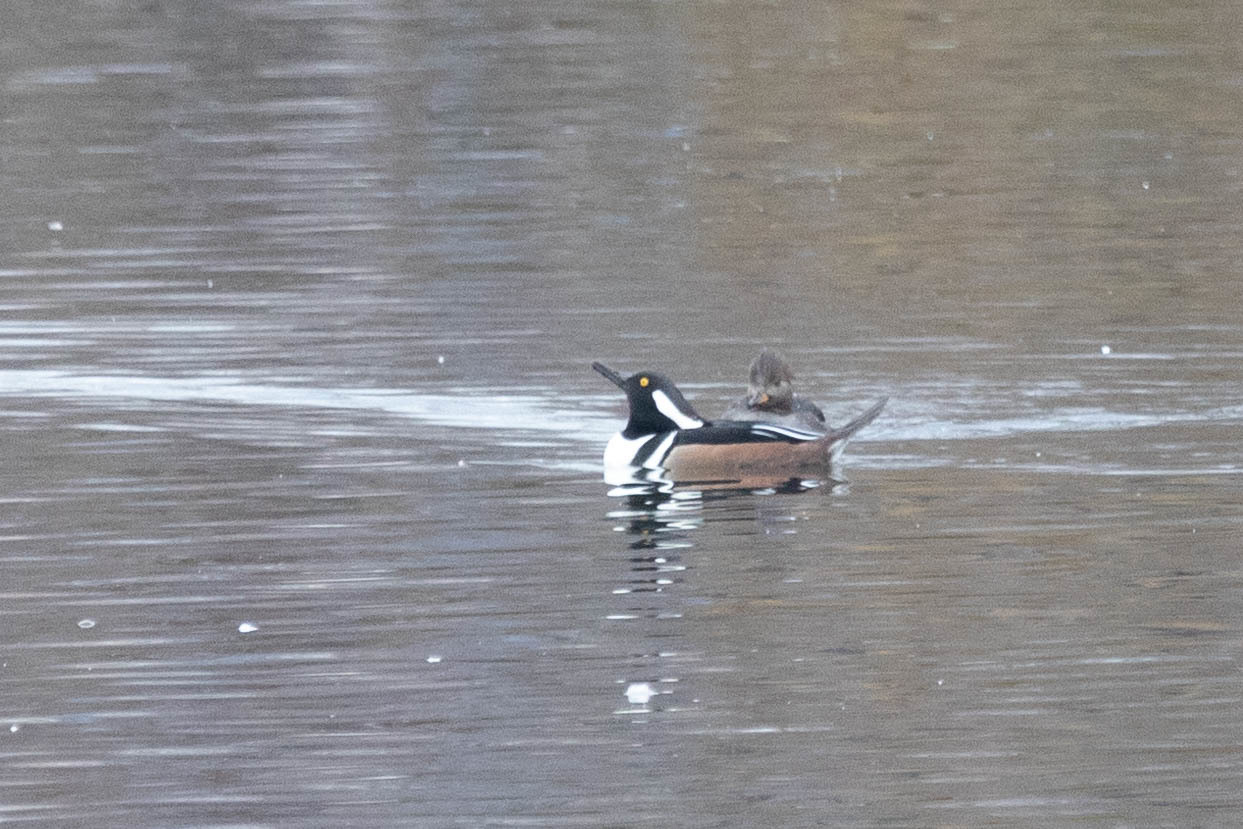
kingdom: Animalia
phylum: Chordata
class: Aves
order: Anseriformes
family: Anatidae
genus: Lophodytes
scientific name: Lophodytes cucullatus
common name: Hooded merganser
